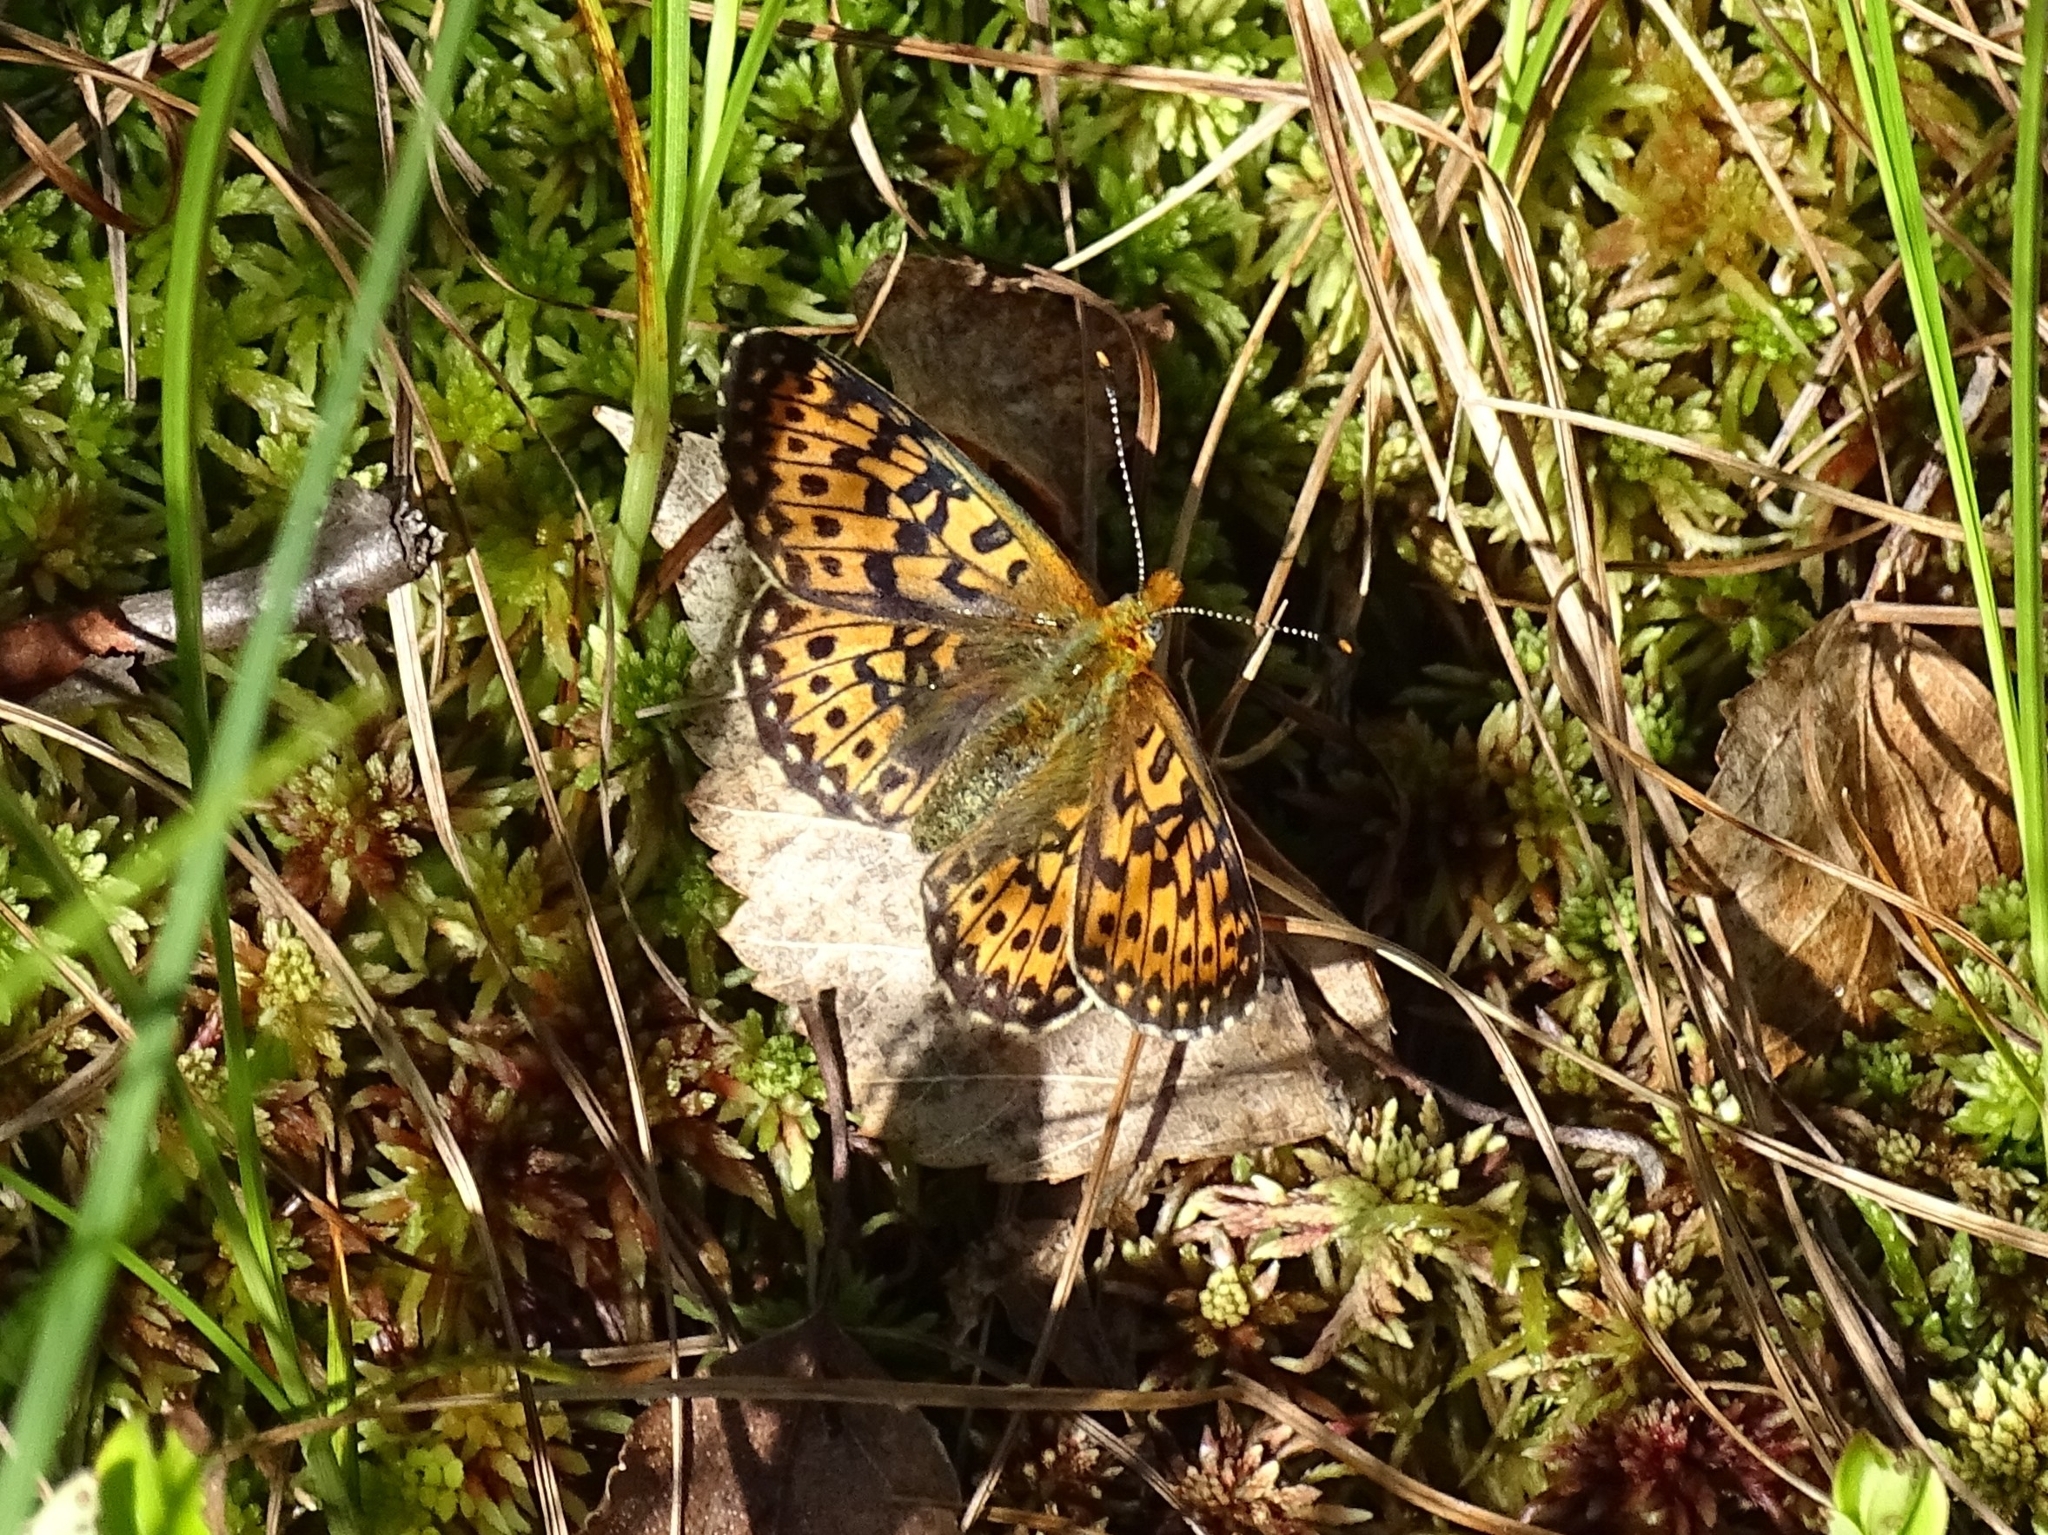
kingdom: Animalia
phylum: Arthropoda
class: Insecta
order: Lepidoptera
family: Nymphalidae
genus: Clossiana
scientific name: Clossiana euphrosyne
